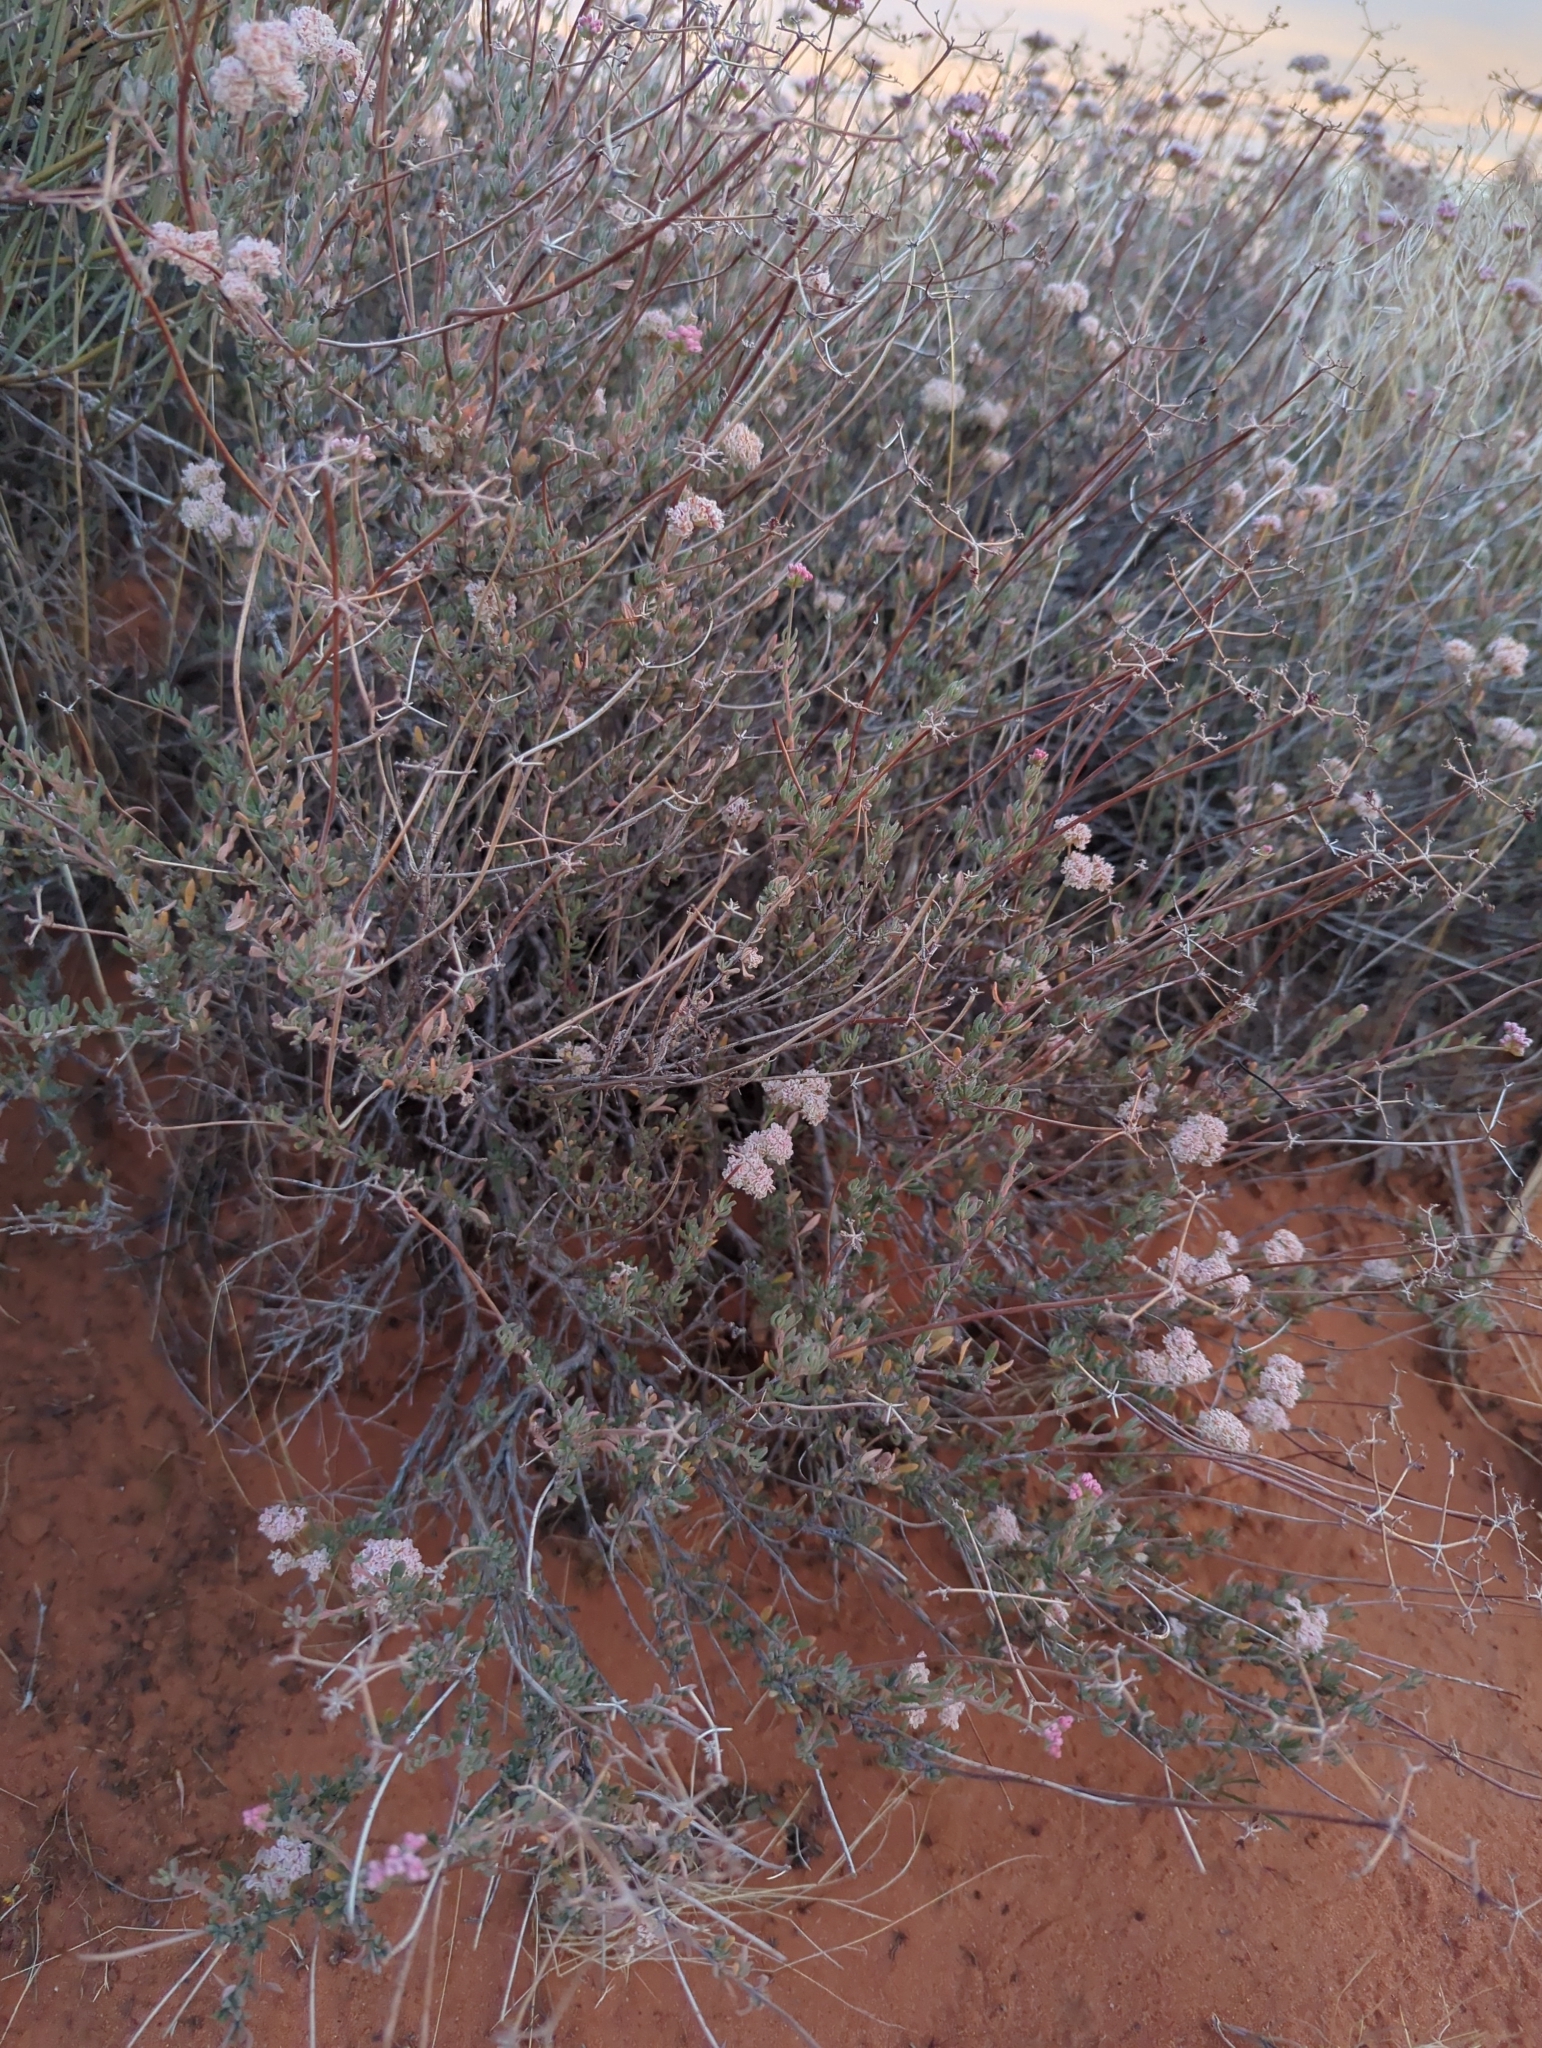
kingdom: Plantae
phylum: Tracheophyta
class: Magnoliopsida
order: Caryophyllales
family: Polygonaceae
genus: Eriogonum
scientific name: Eriogonum fasciculatum
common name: California wild buckwheat
